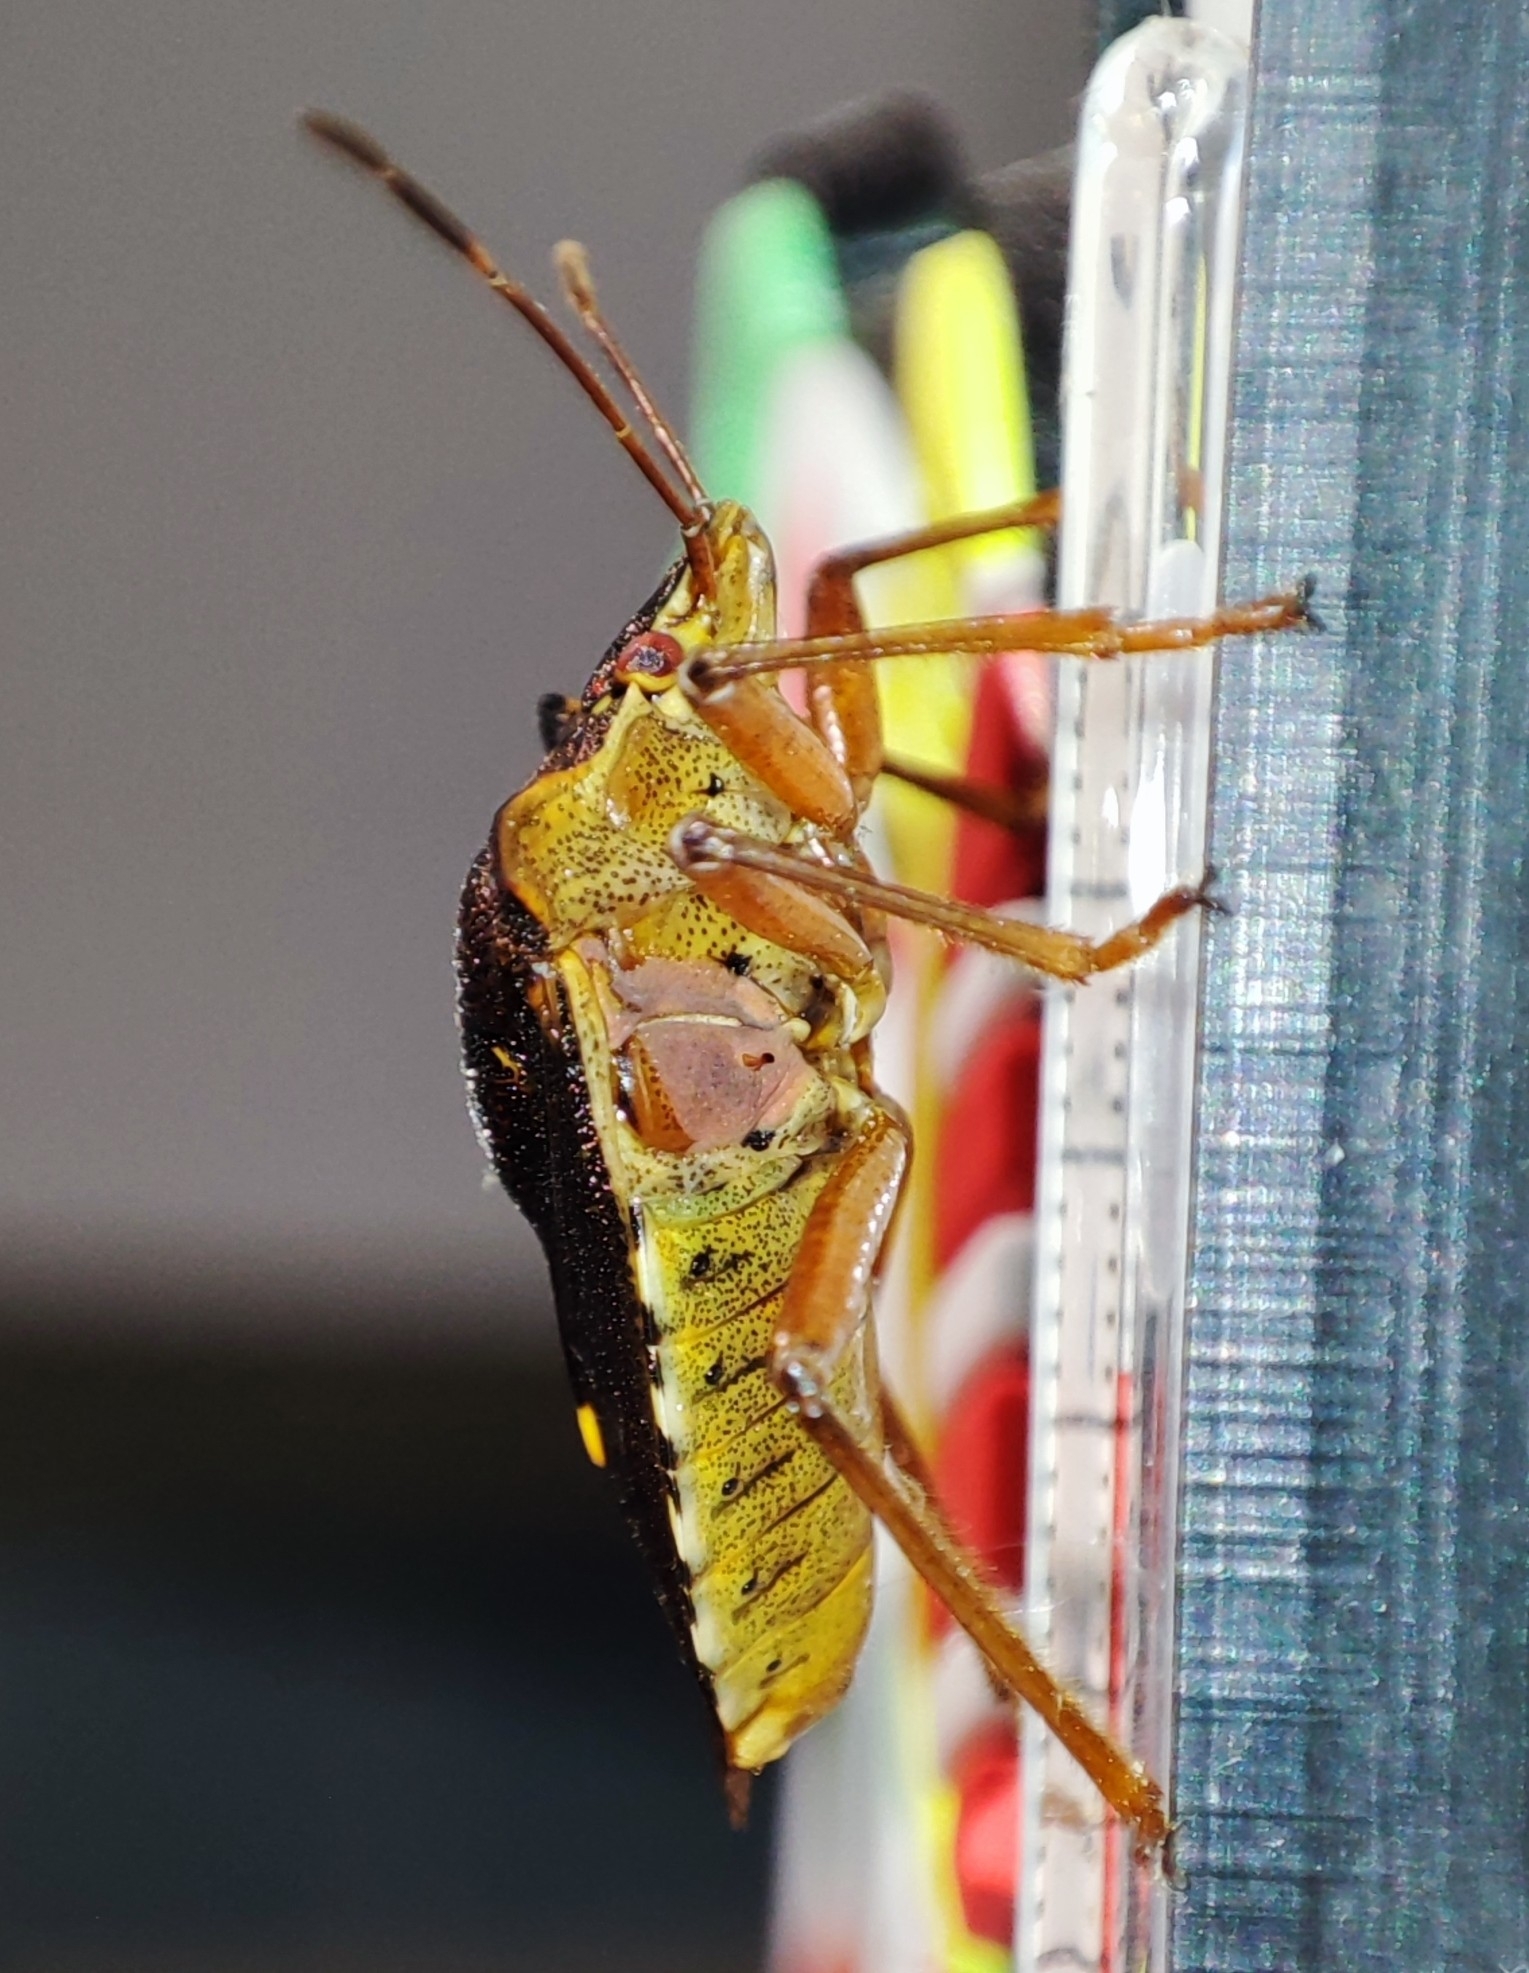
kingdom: Animalia
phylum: Arthropoda
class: Insecta
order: Hemiptera
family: Pentatomidae
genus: Pentatoma
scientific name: Pentatoma rufipes
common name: Forest bug
